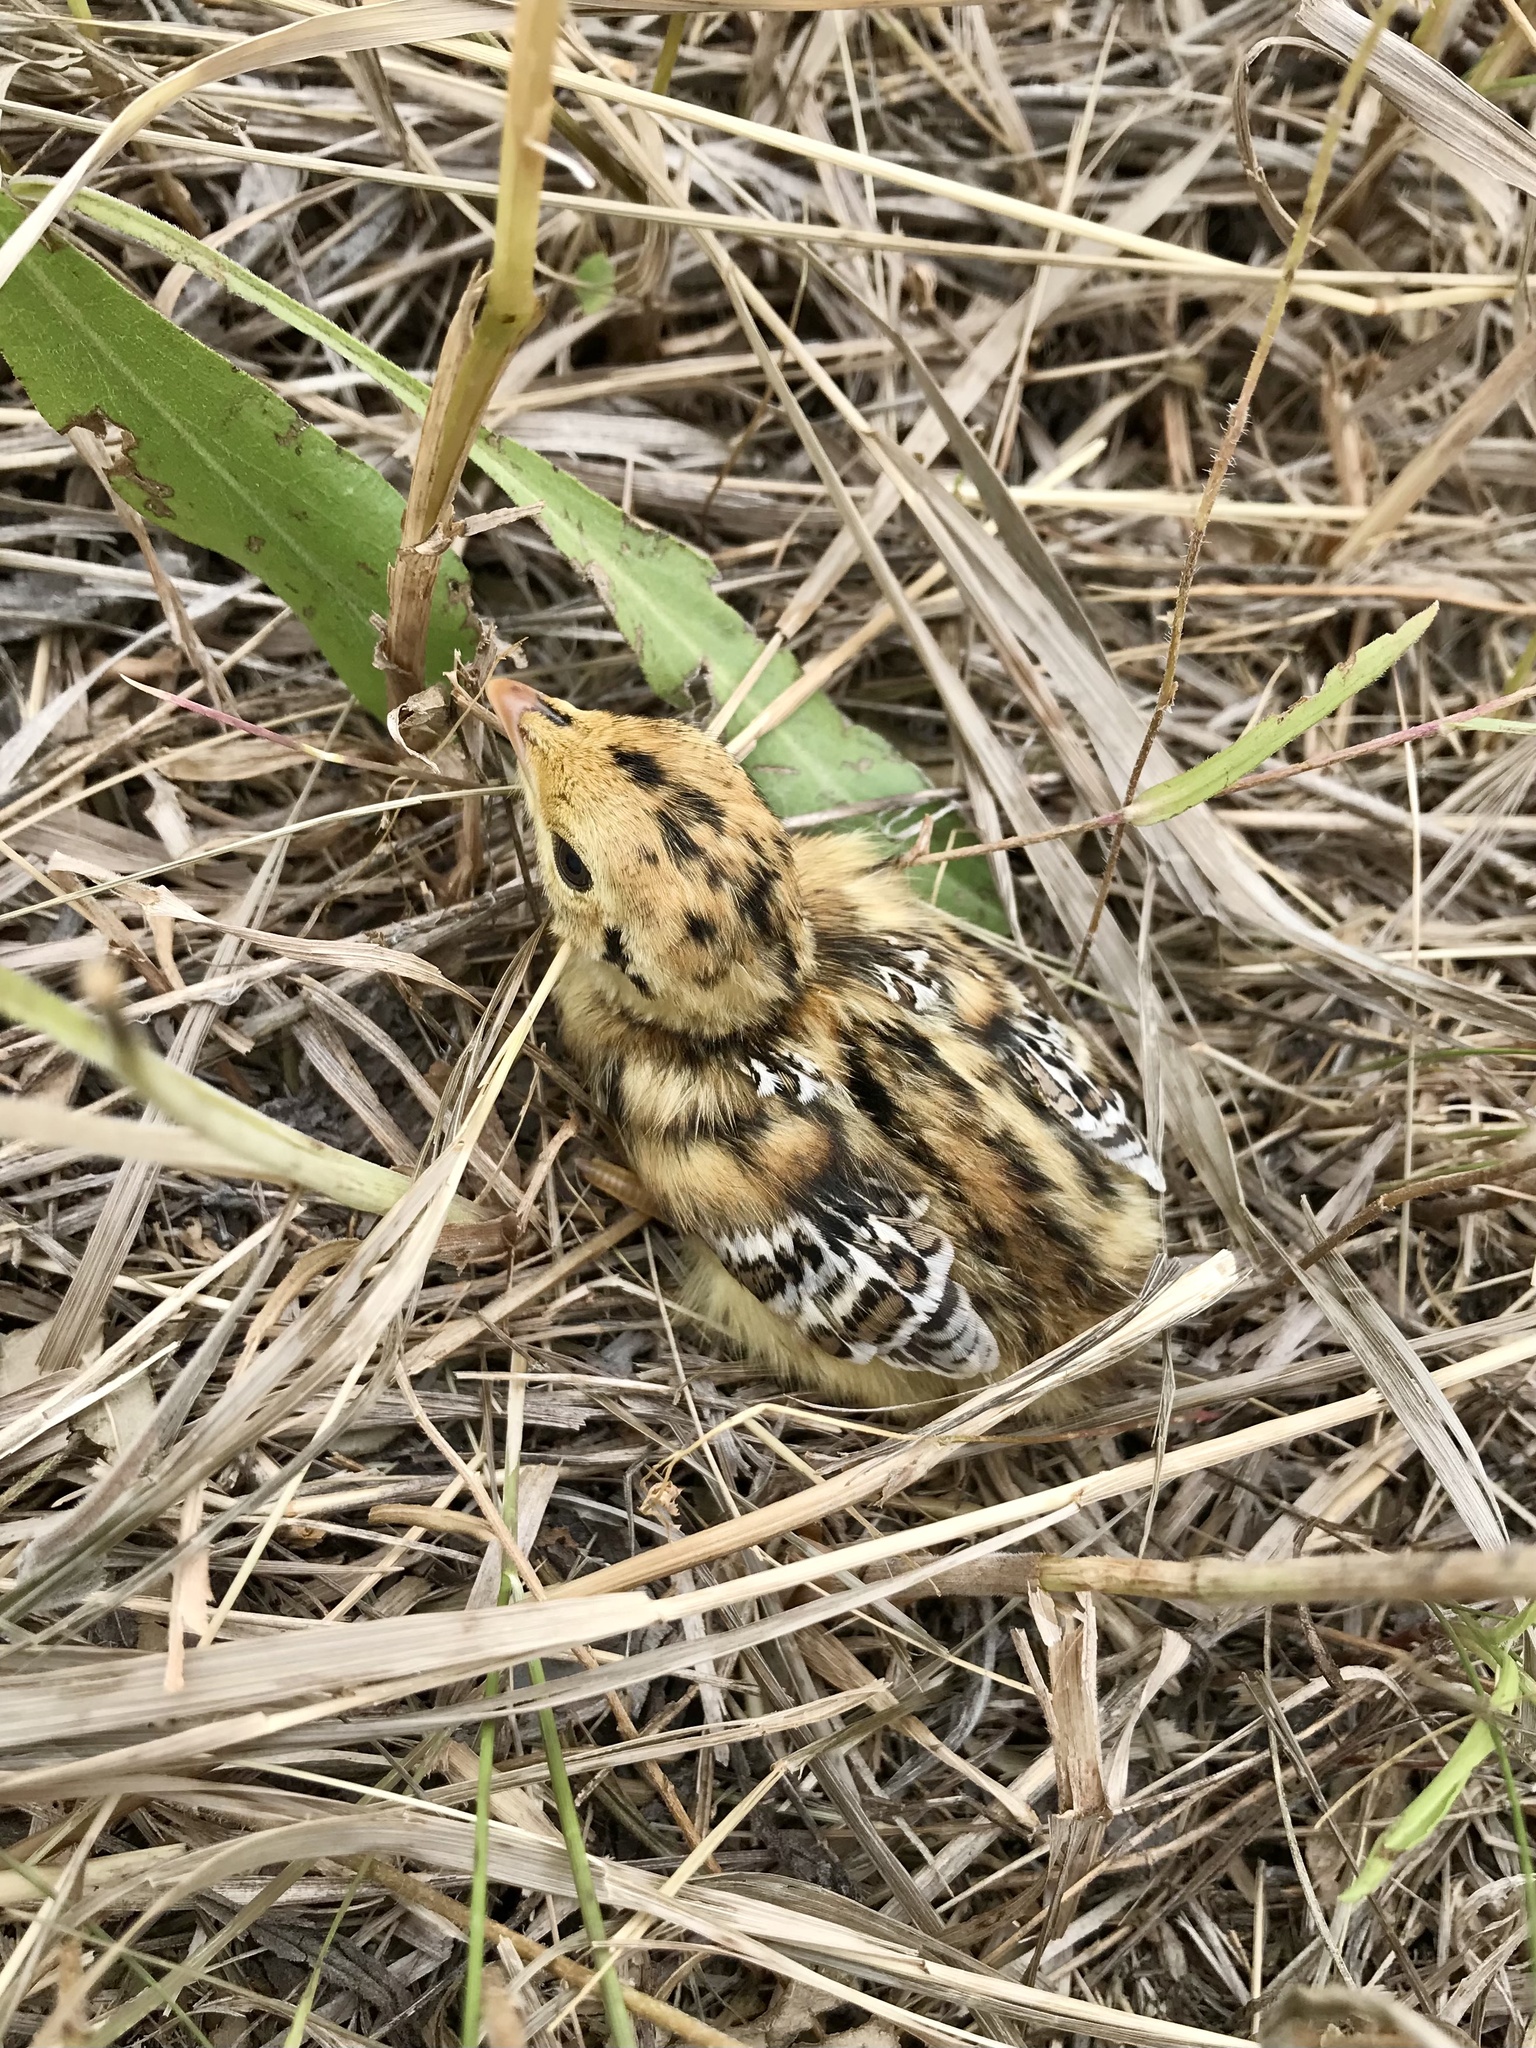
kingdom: Animalia
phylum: Chordata
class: Aves
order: Galliformes
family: Phasianidae
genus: Tympanuchus
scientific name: Tympanuchus phasianellus
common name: Sharp-tailed grouse
